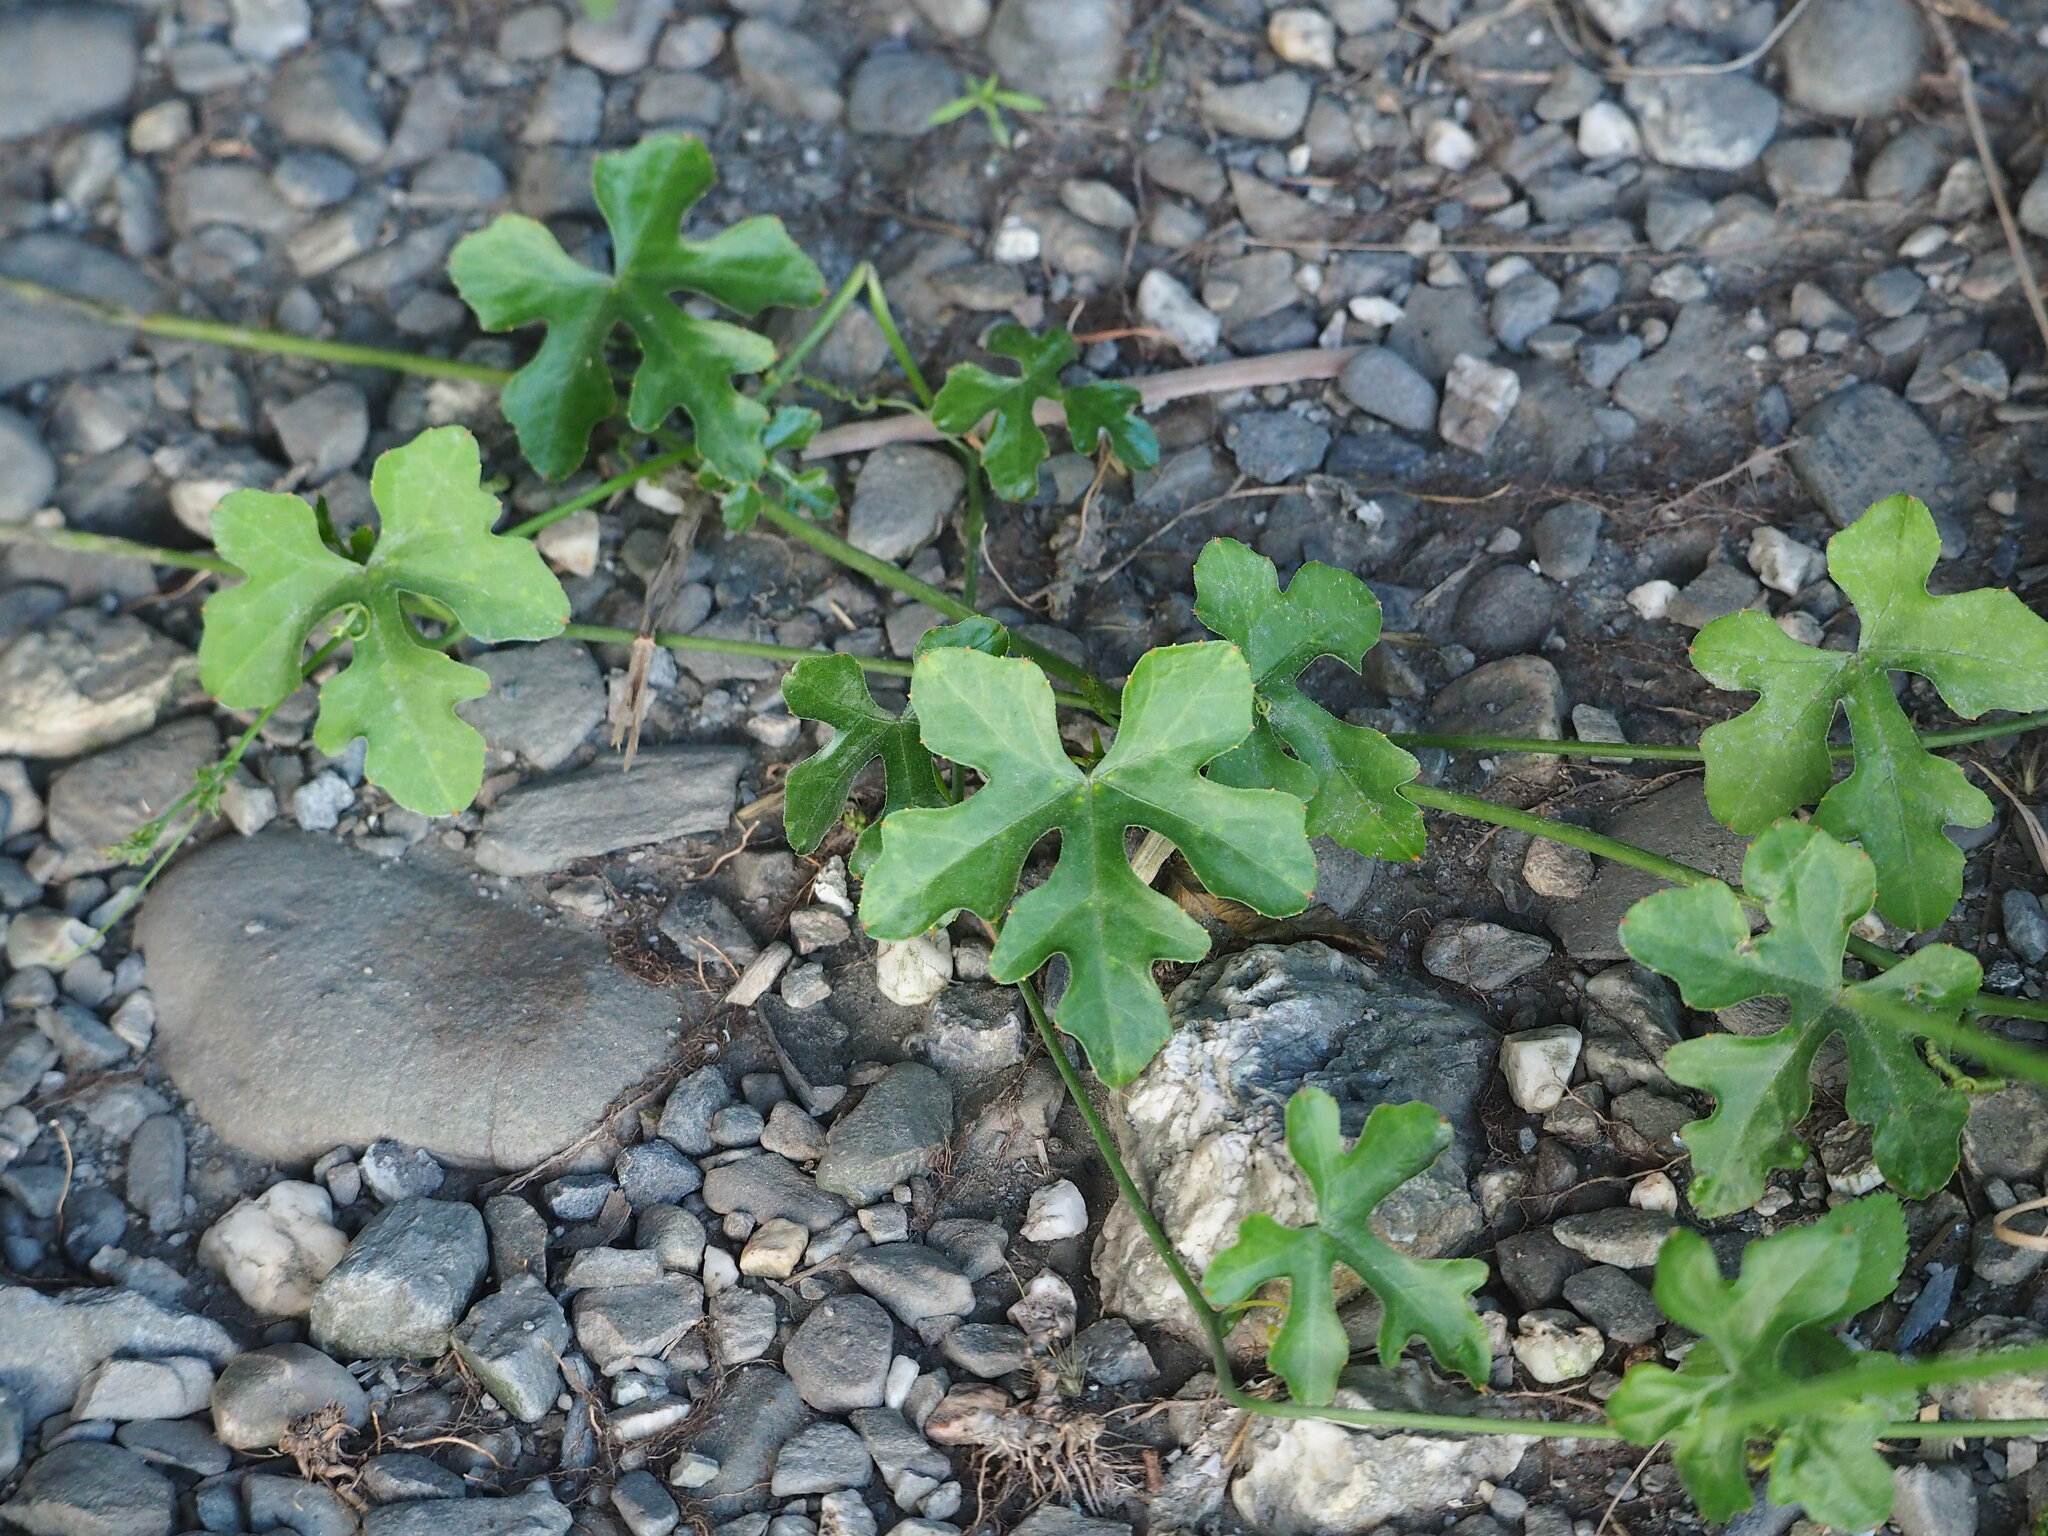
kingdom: Plantae
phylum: Tracheophyta
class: Magnoliopsida
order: Cucurbitales
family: Cucurbitaceae
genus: Coccinia
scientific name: Coccinia grandis
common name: Ivy gourd
